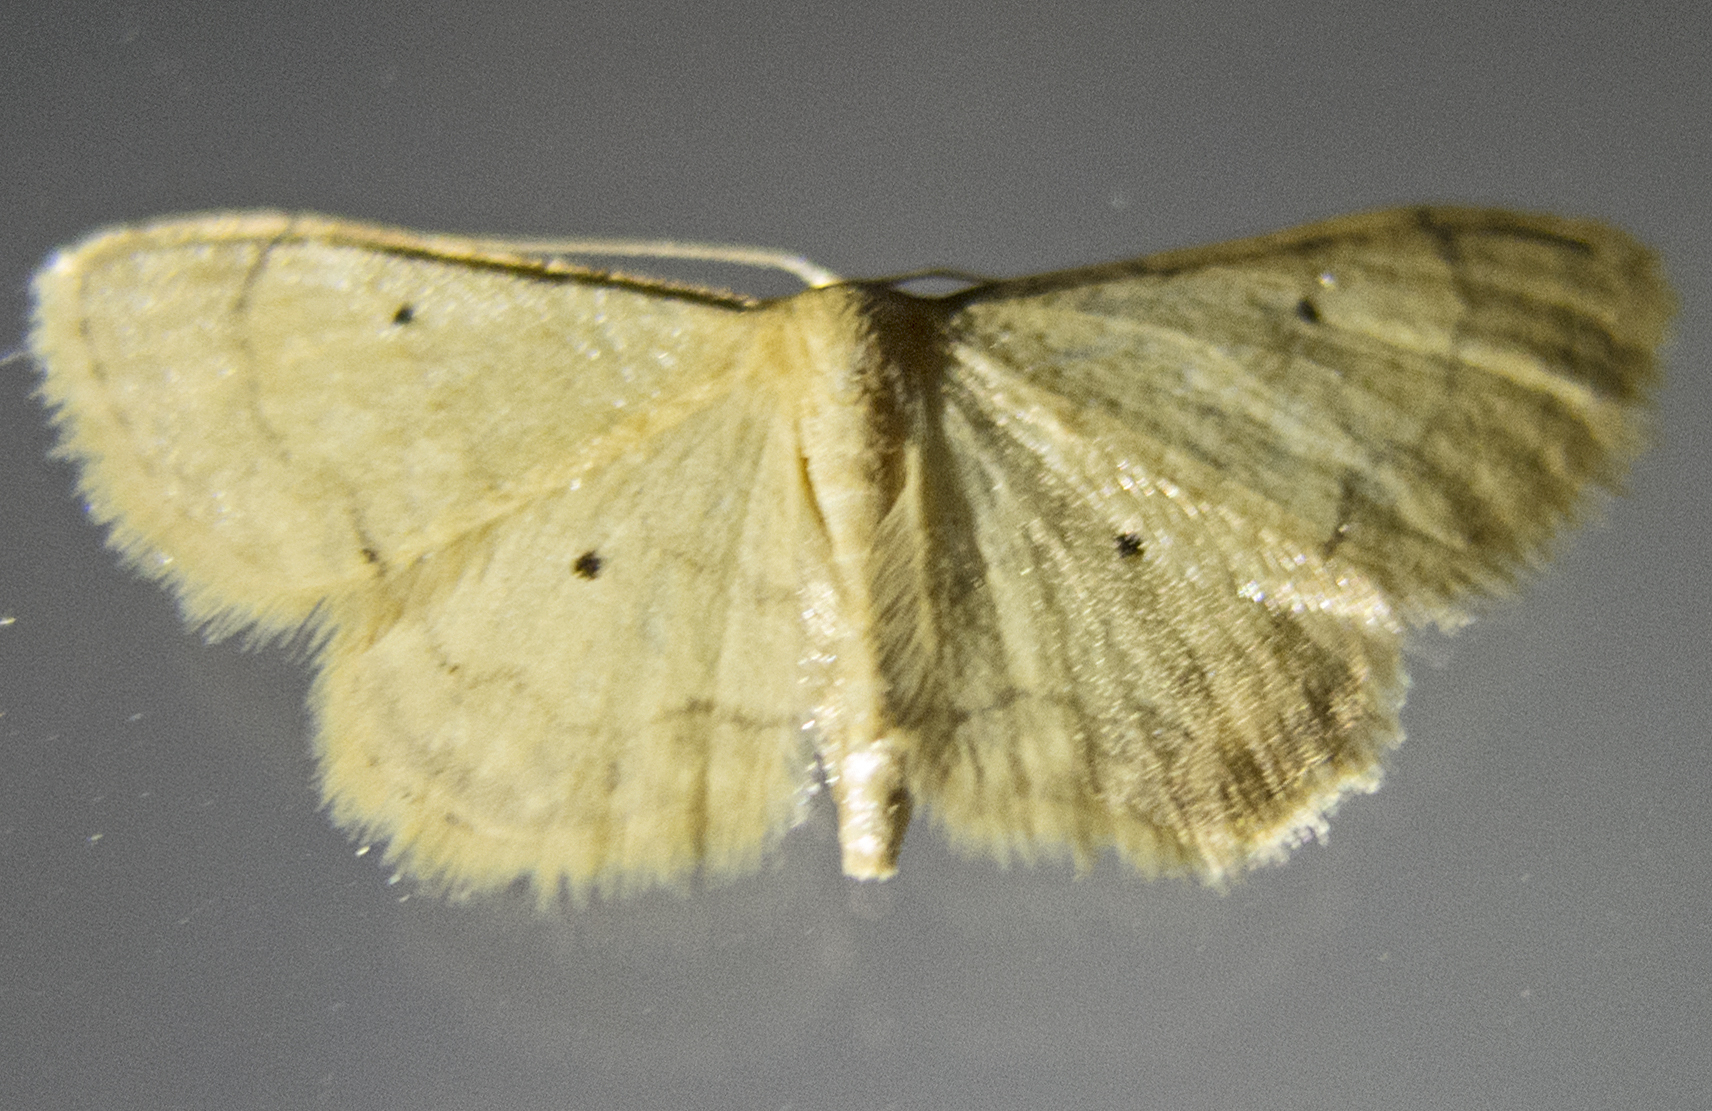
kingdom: Animalia
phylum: Arthropoda
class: Insecta
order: Lepidoptera
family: Geometridae
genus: Idaea
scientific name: Idaea politaria
